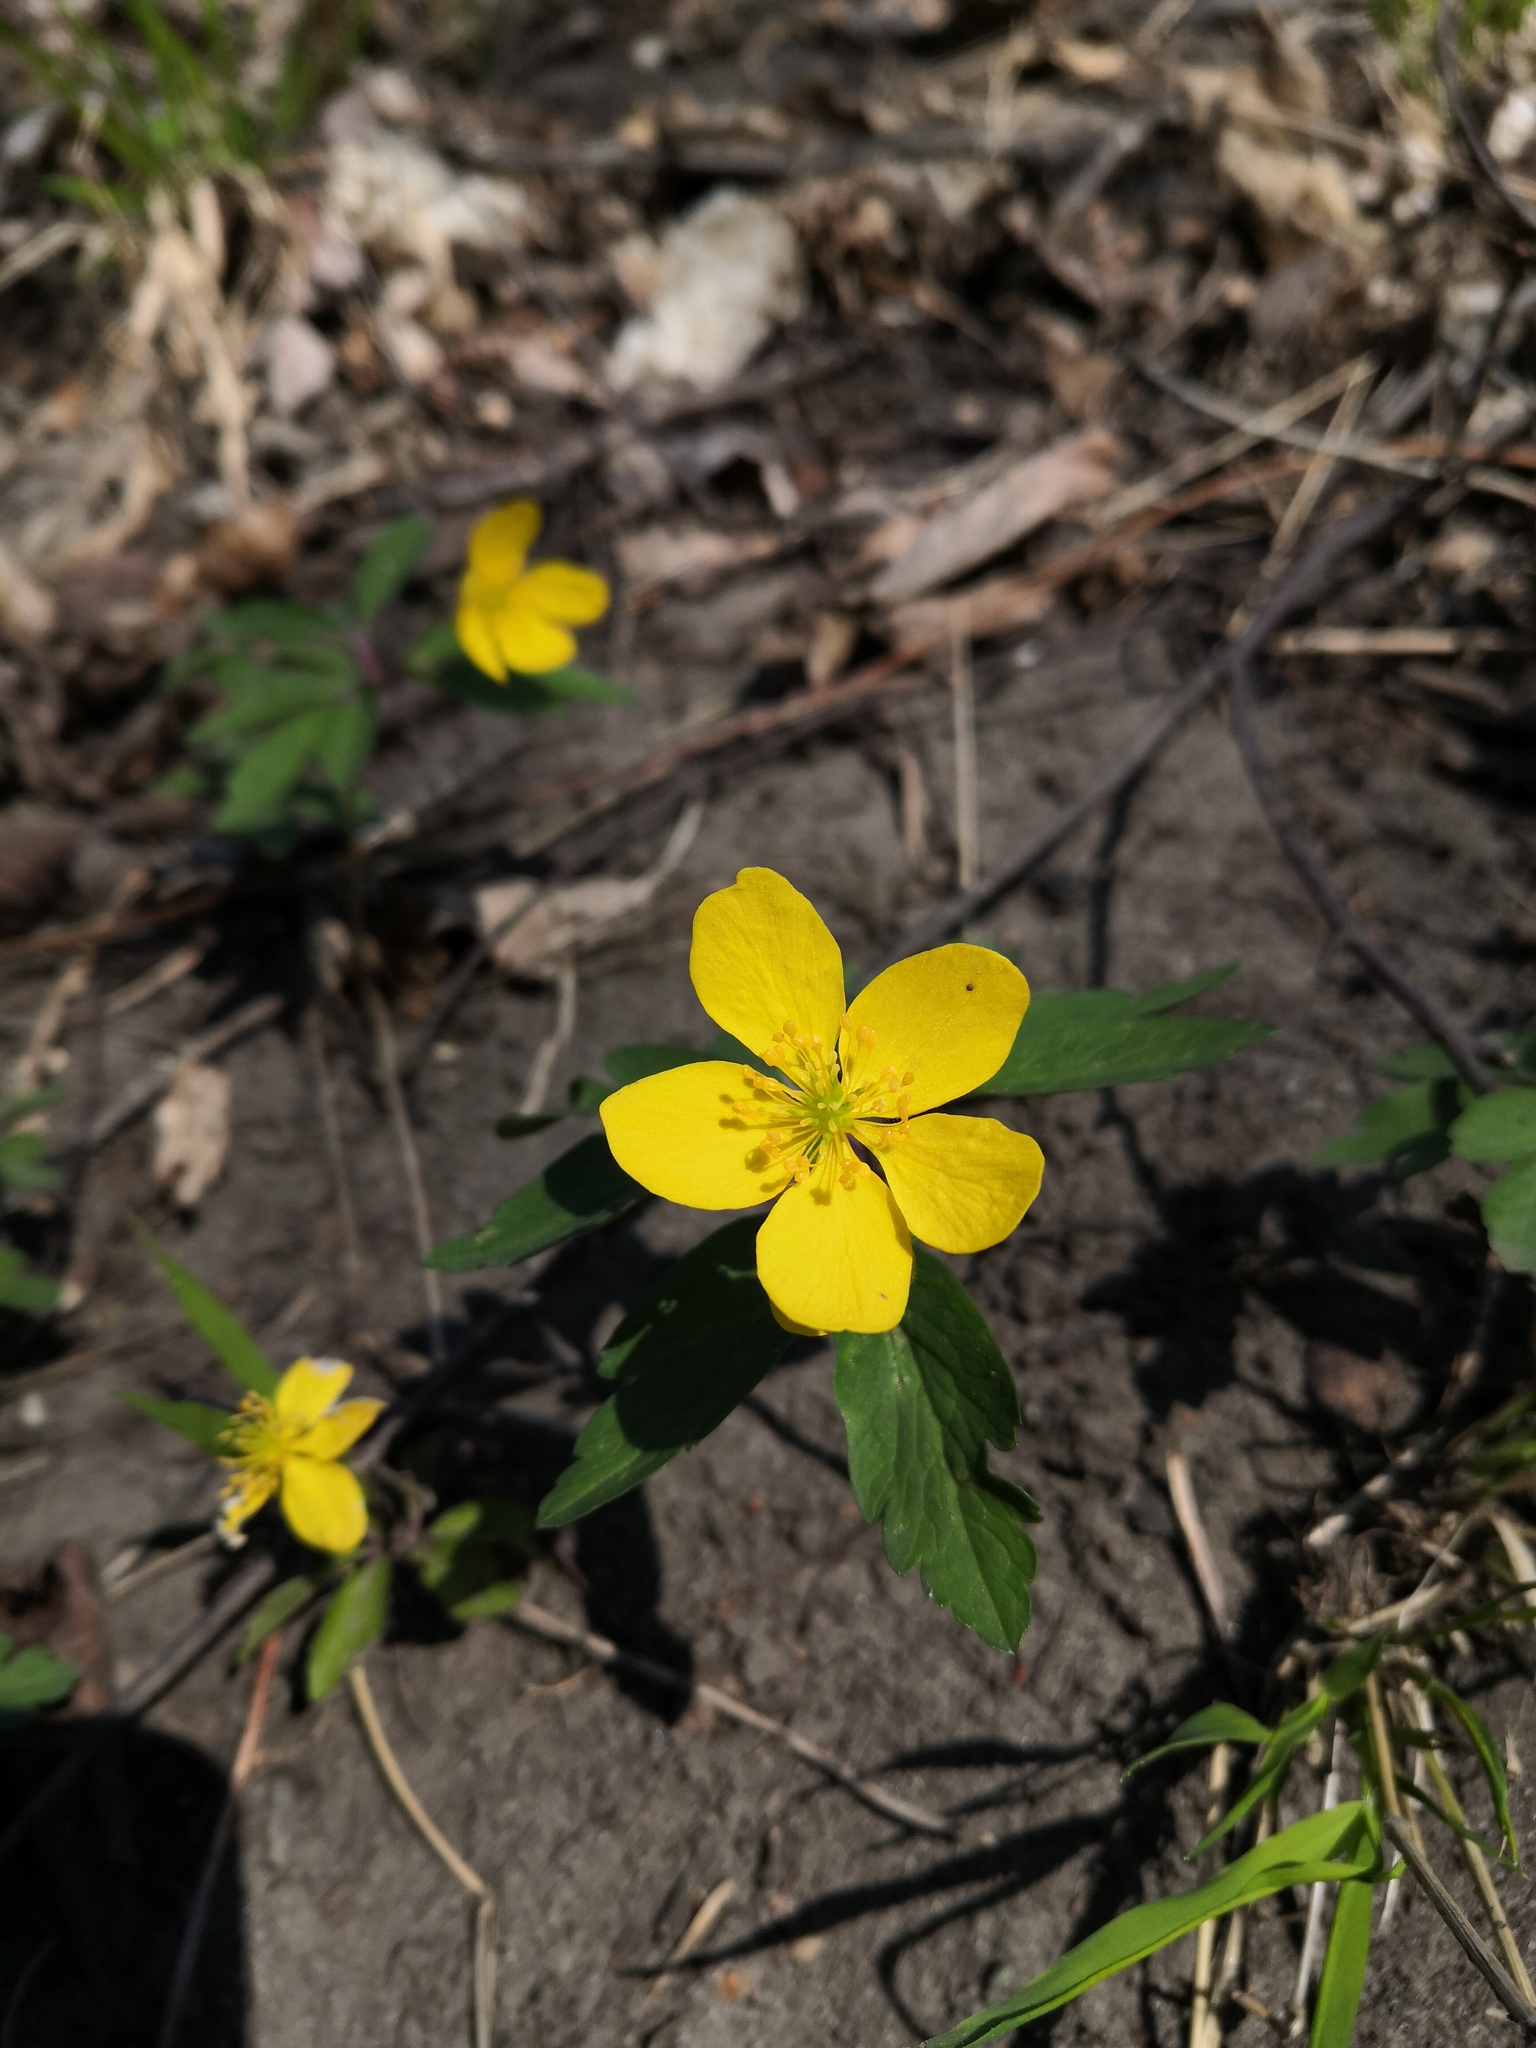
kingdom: Plantae
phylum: Tracheophyta
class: Magnoliopsida
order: Ranunculales
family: Ranunculaceae
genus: Anemone
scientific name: Anemone ranunculoides
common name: Yellow anemone
